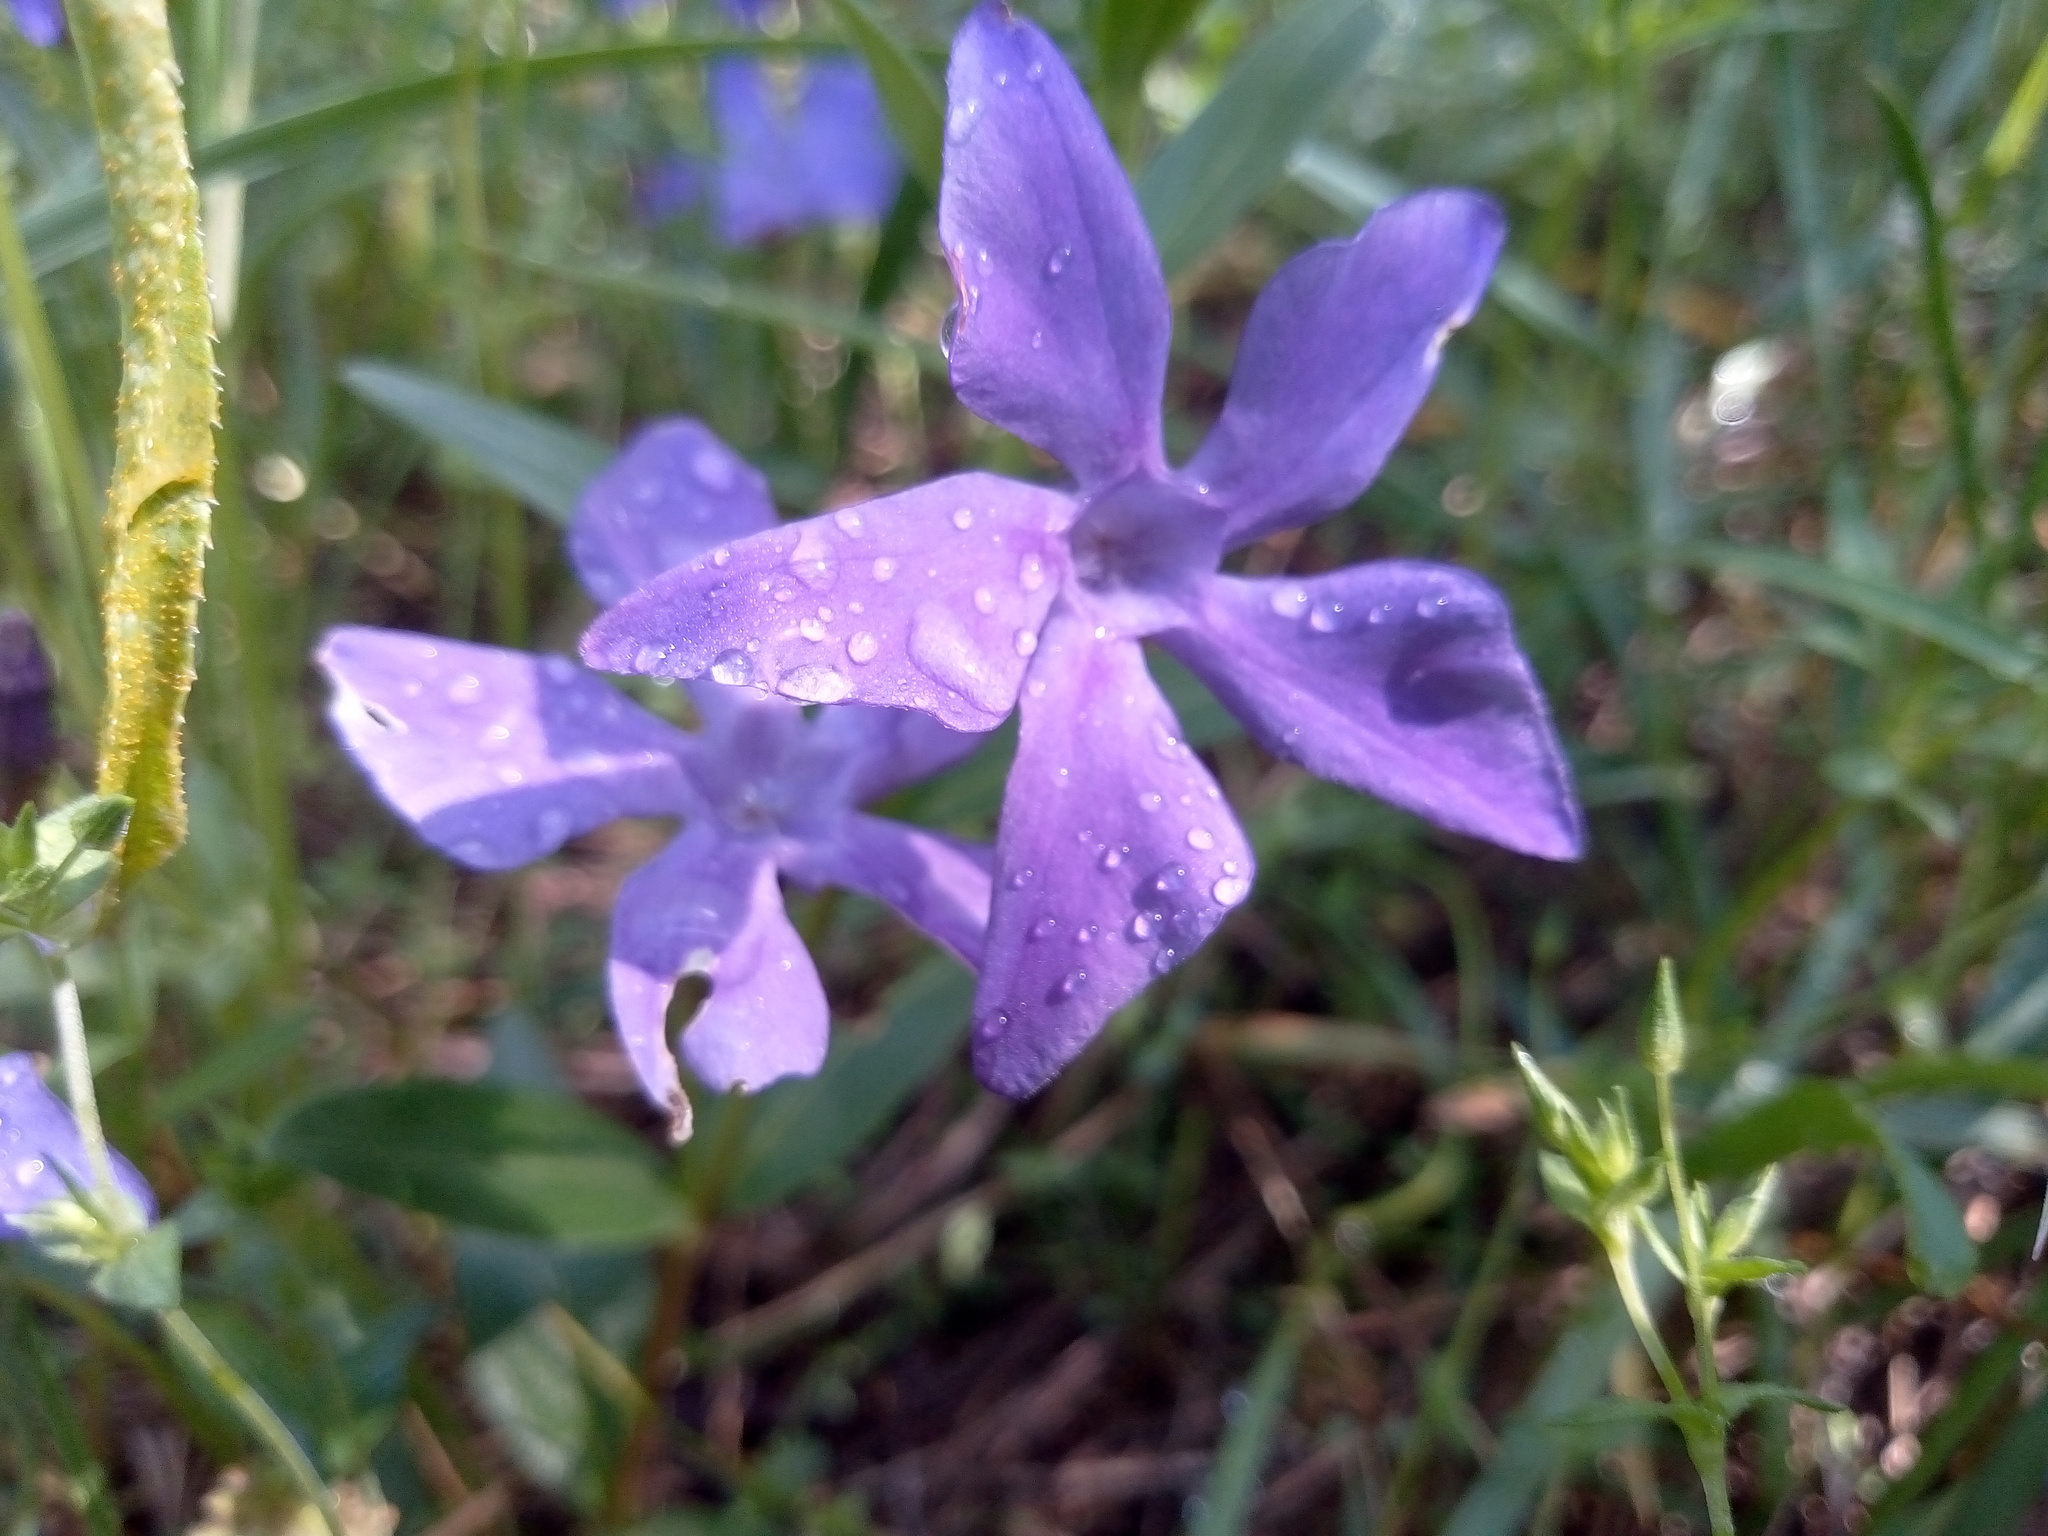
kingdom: Plantae
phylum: Tracheophyta
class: Magnoliopsida
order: Gentianales
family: Apocynaceae
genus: Vinca
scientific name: Vinca herbacea
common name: Herbaceous periwinkle
